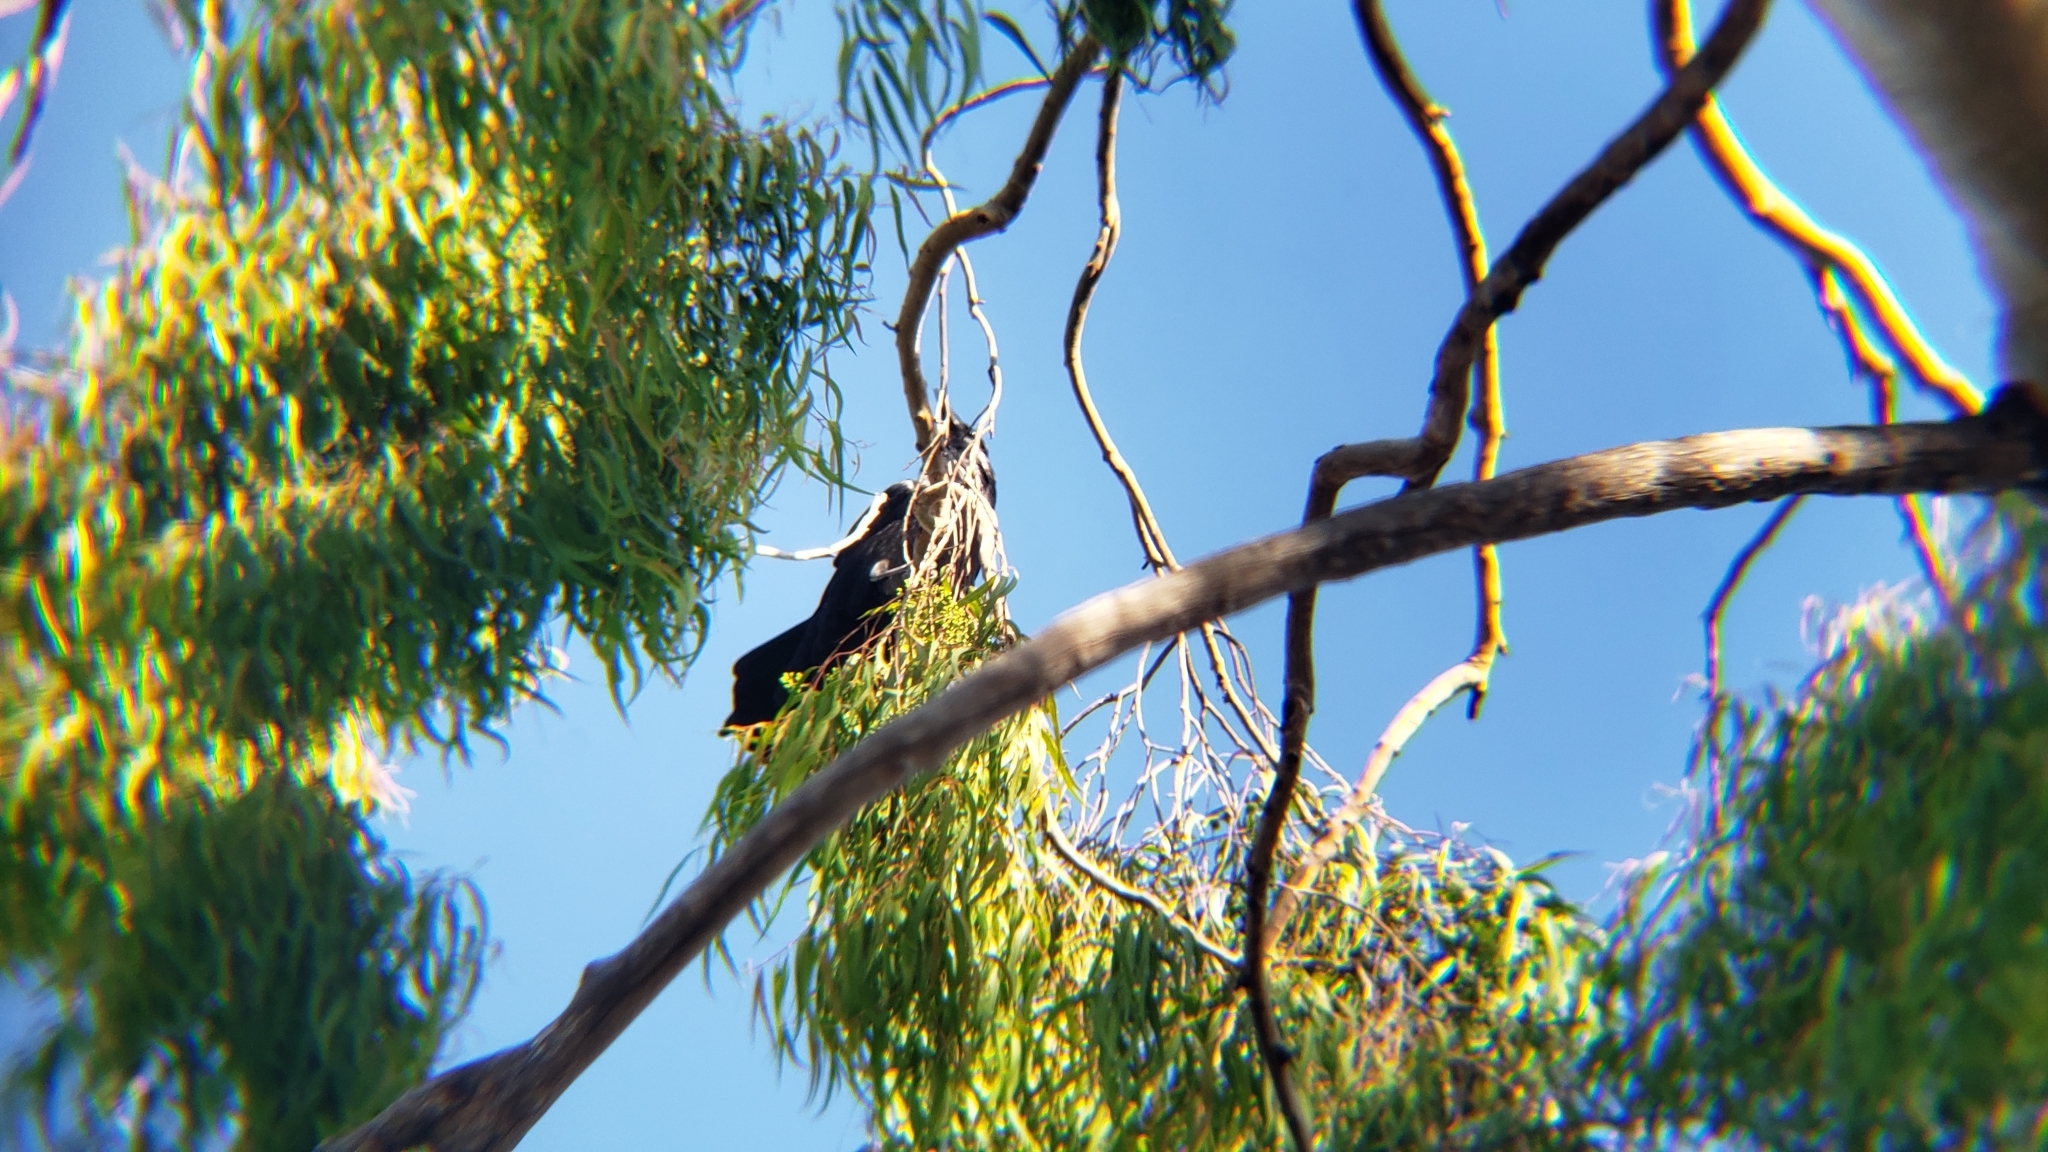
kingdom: Animalia
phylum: Chordata
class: Aves
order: Passeriformes
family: Corvidae
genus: Corvus
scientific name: Corvus brachyrhynchos
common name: American crow
